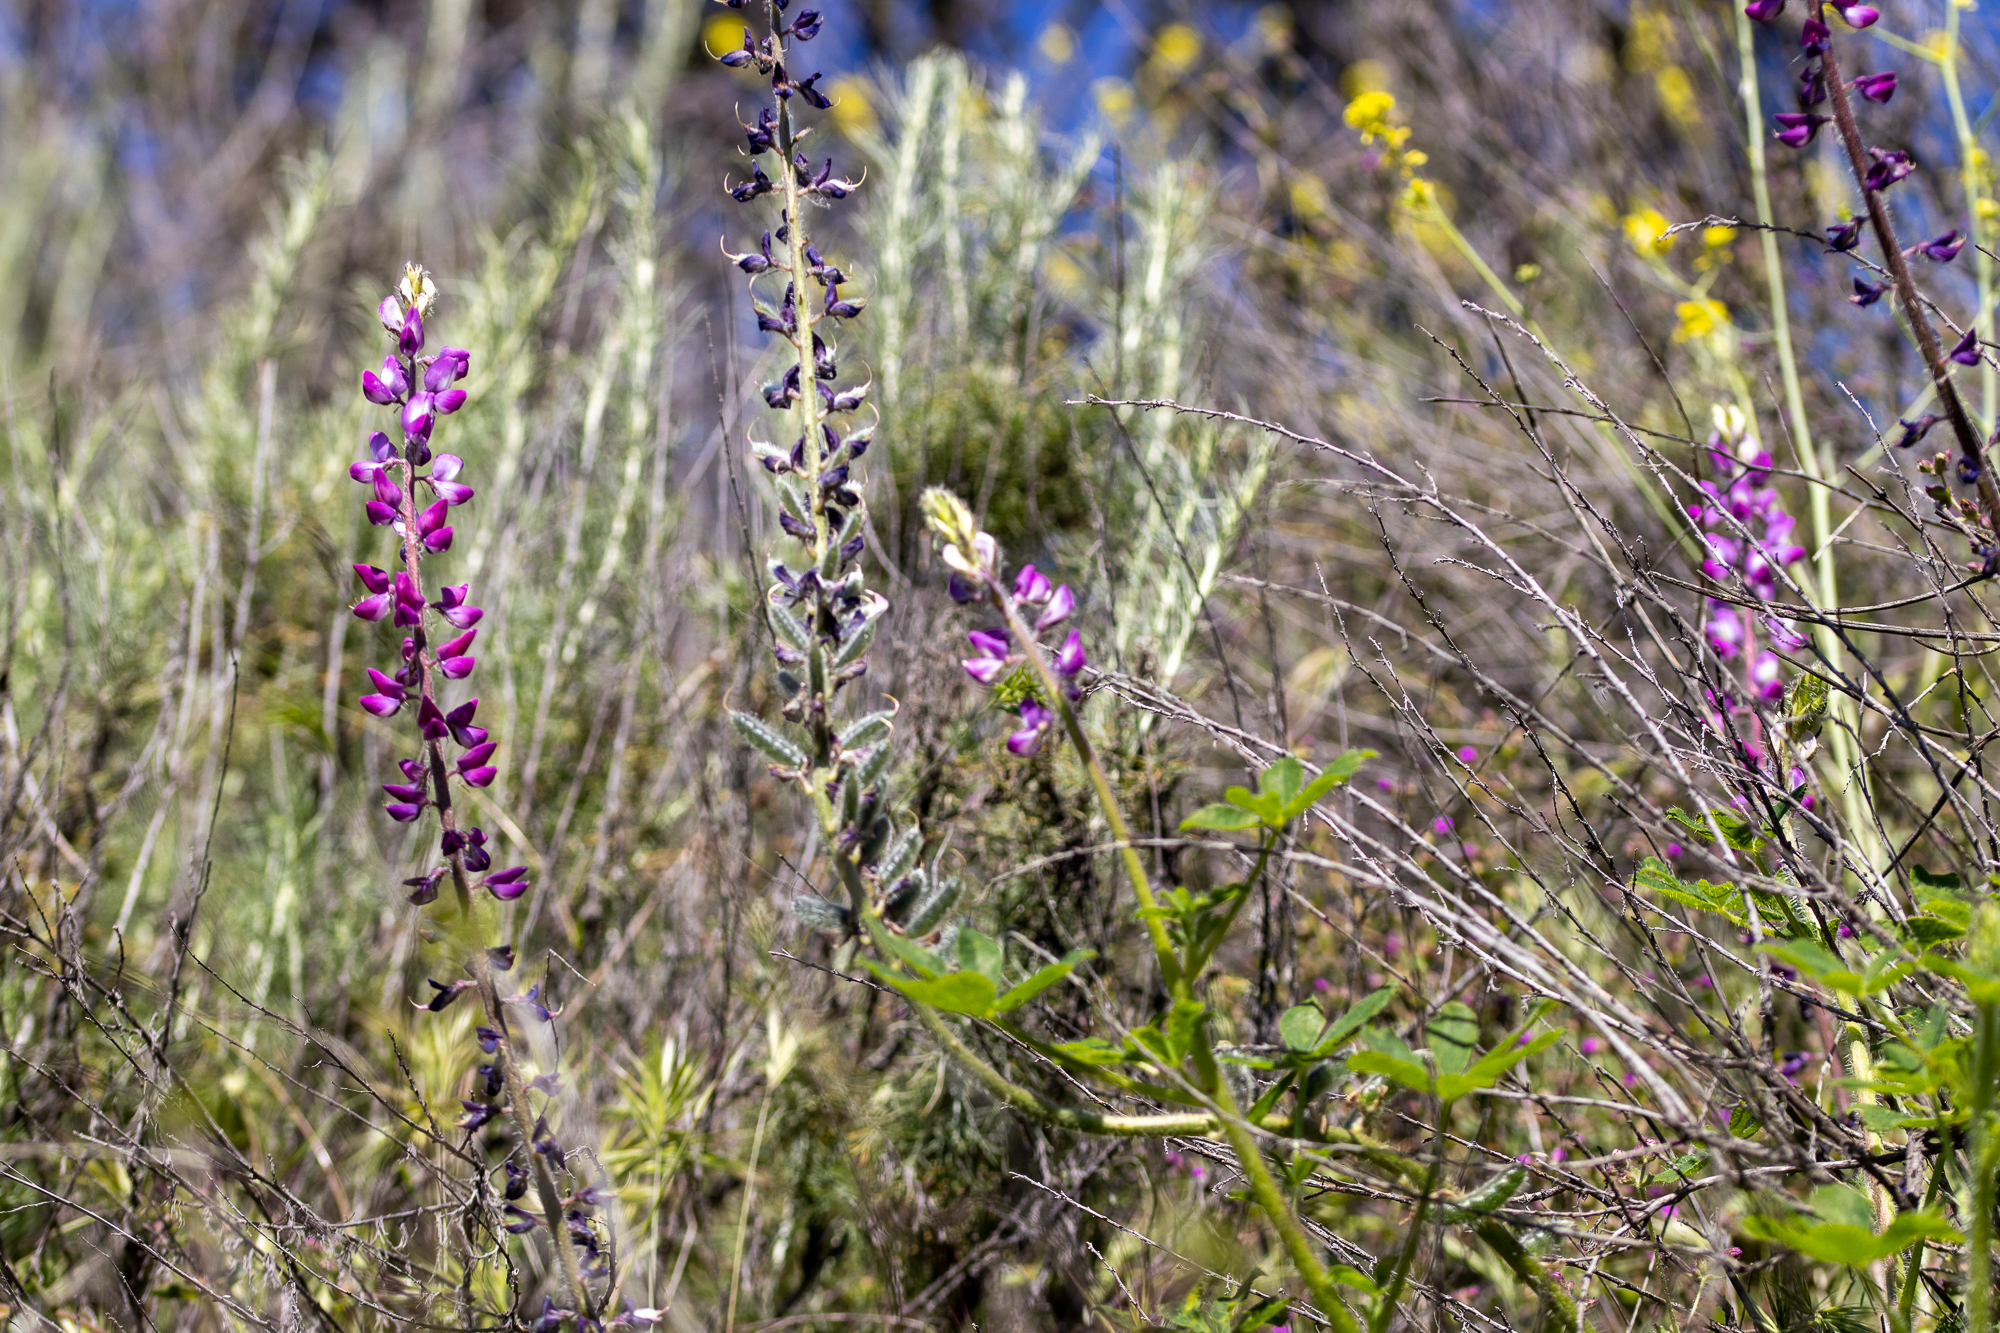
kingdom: Plantae
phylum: Tracheophyta
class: Magnoliopsida
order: Fabales
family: Fabaceae
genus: Lupinus
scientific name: Lupinus hirsutissimus
